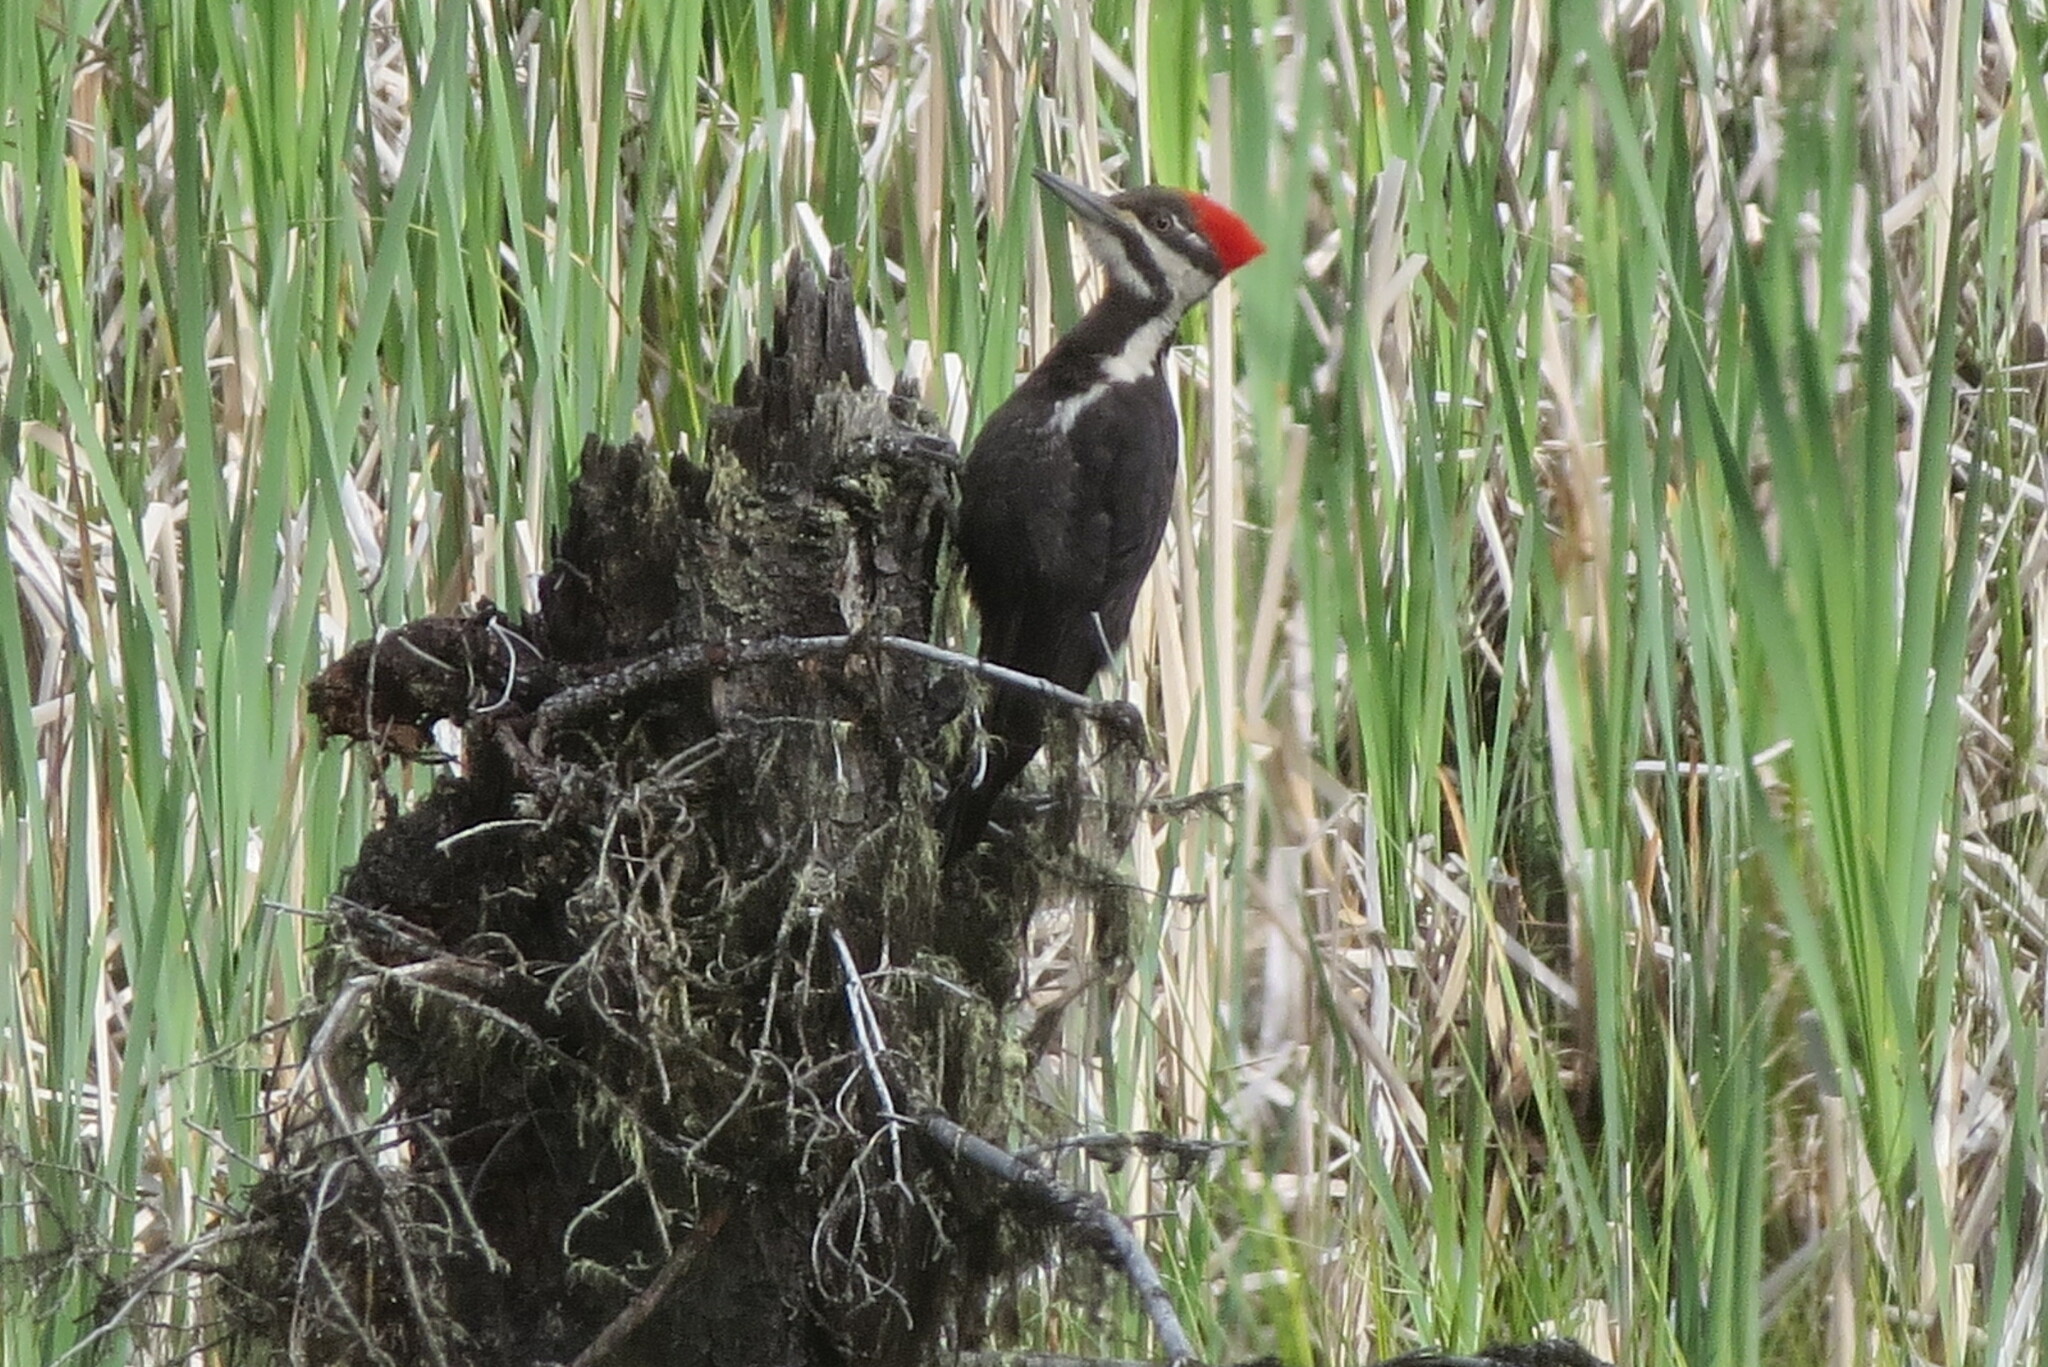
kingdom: Animalia
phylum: Chordata
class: Aves
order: Piciformes
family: Picidae
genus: Dryocopus
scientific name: Dryocopus pileatus
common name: Pileated woodpecker
